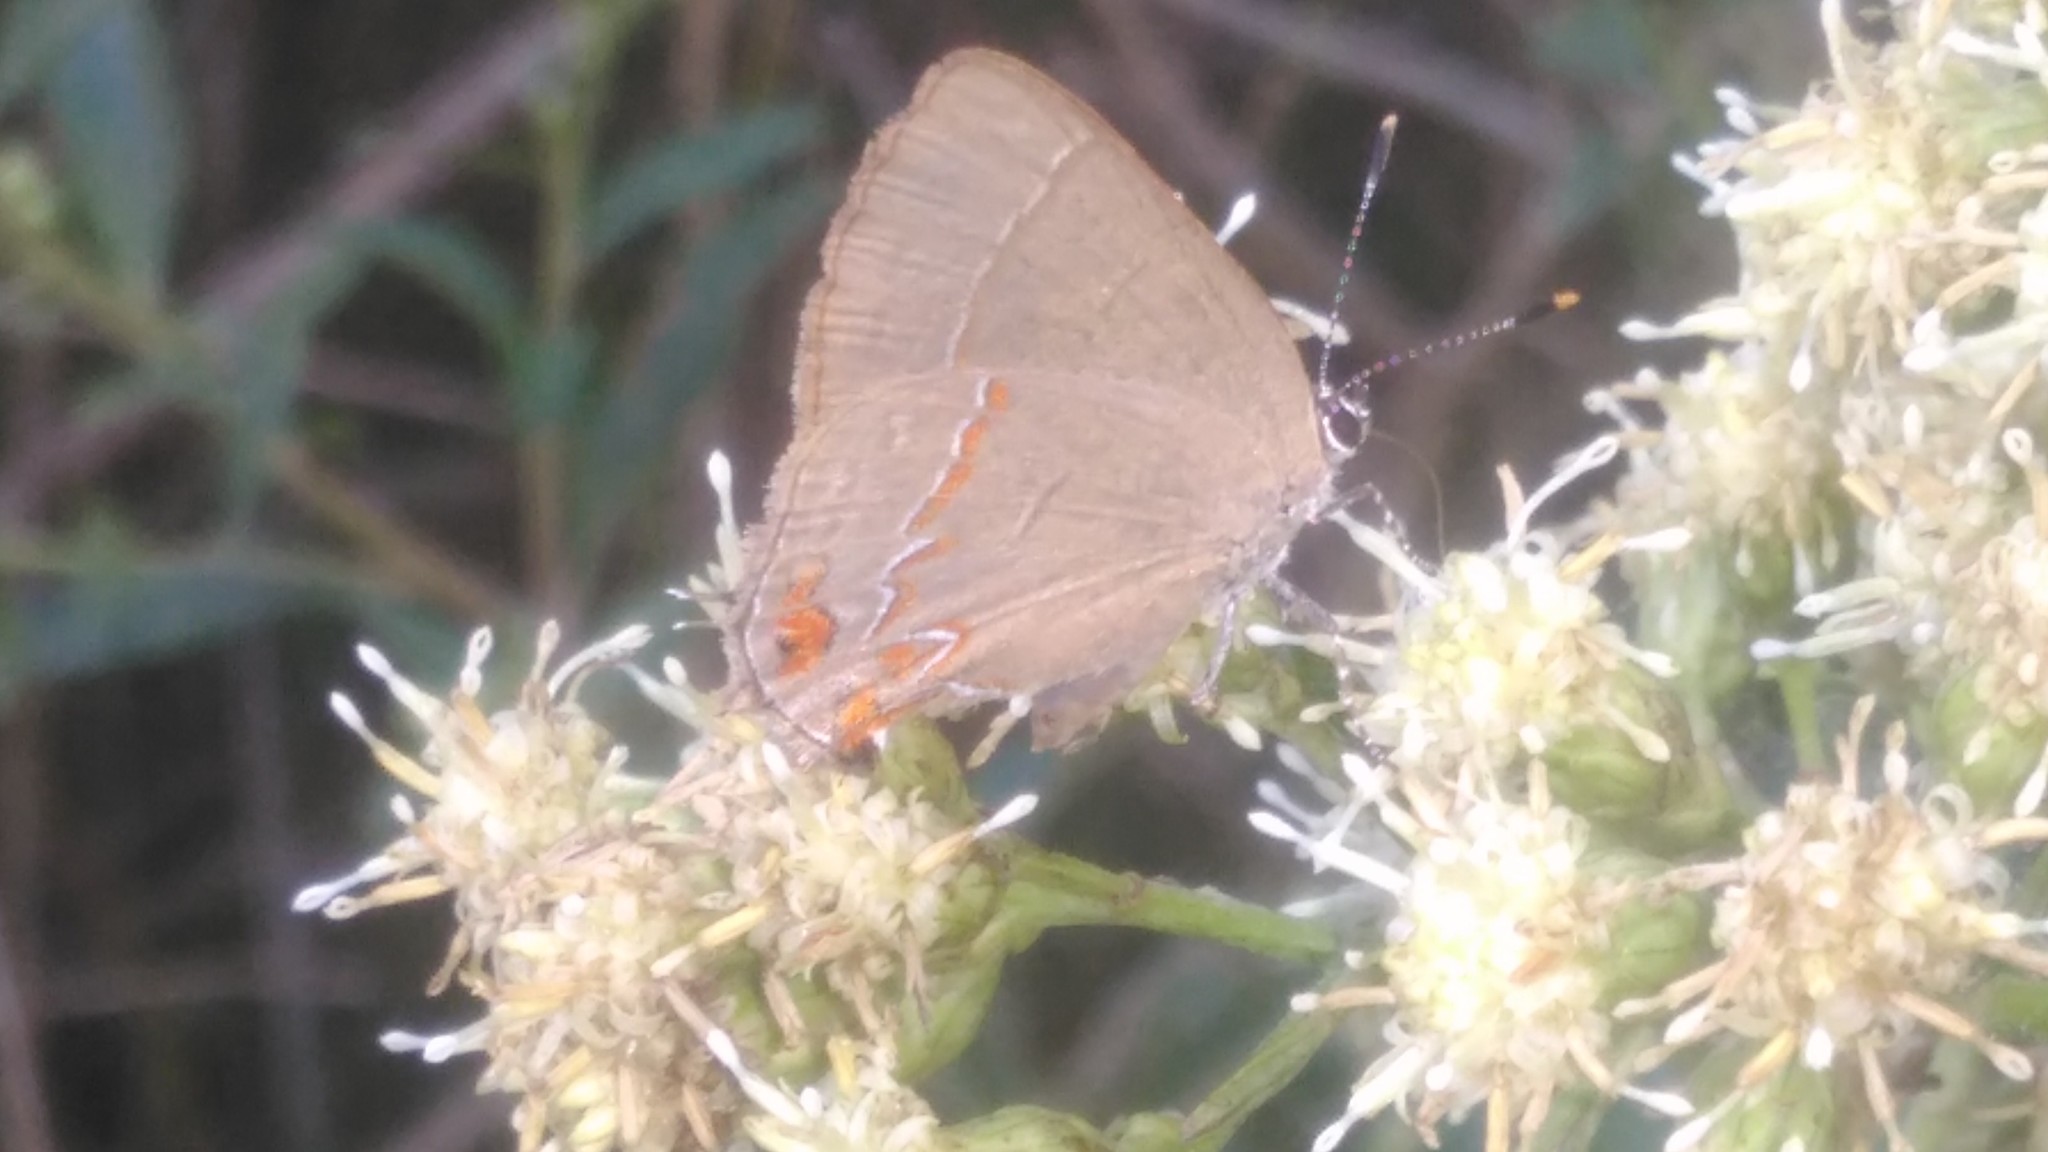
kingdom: Animalia
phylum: Arthropoda
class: Insecta
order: Lepidoptera
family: Lycaenidae
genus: Calycopis
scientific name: Calycopis caulonia
